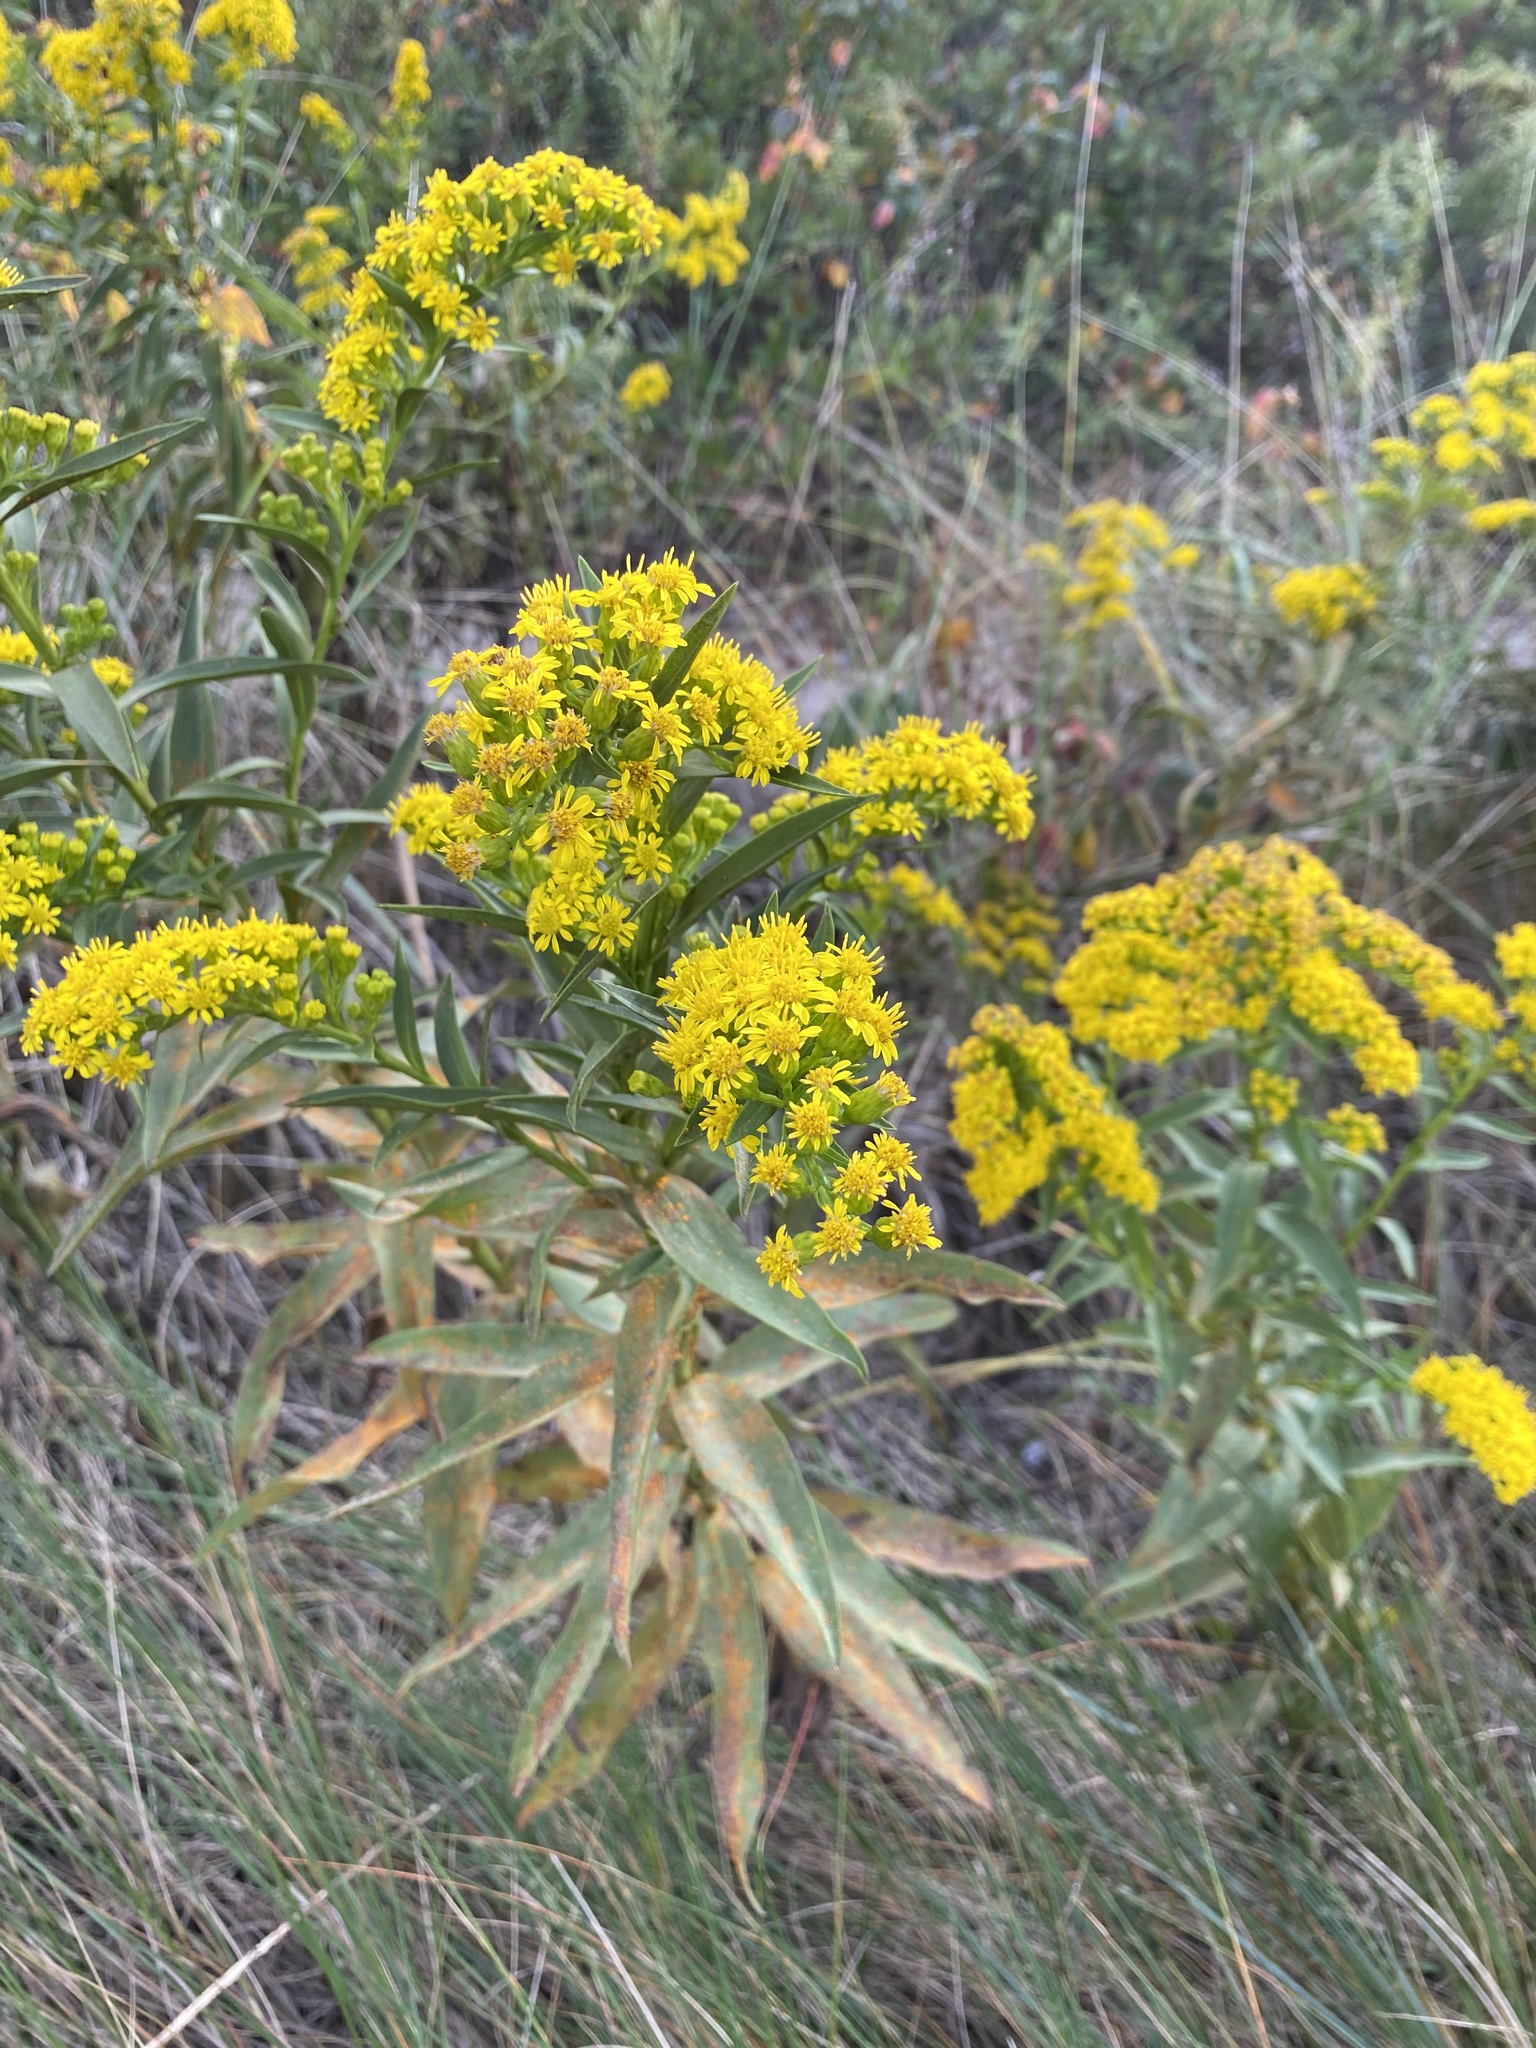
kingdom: Plantae
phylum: Tracheophyta
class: Magnoliopsida
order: Asterales
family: Asteraceae
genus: Solidago
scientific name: Solidago sempervirens
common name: Salt-marsh goldenrod
